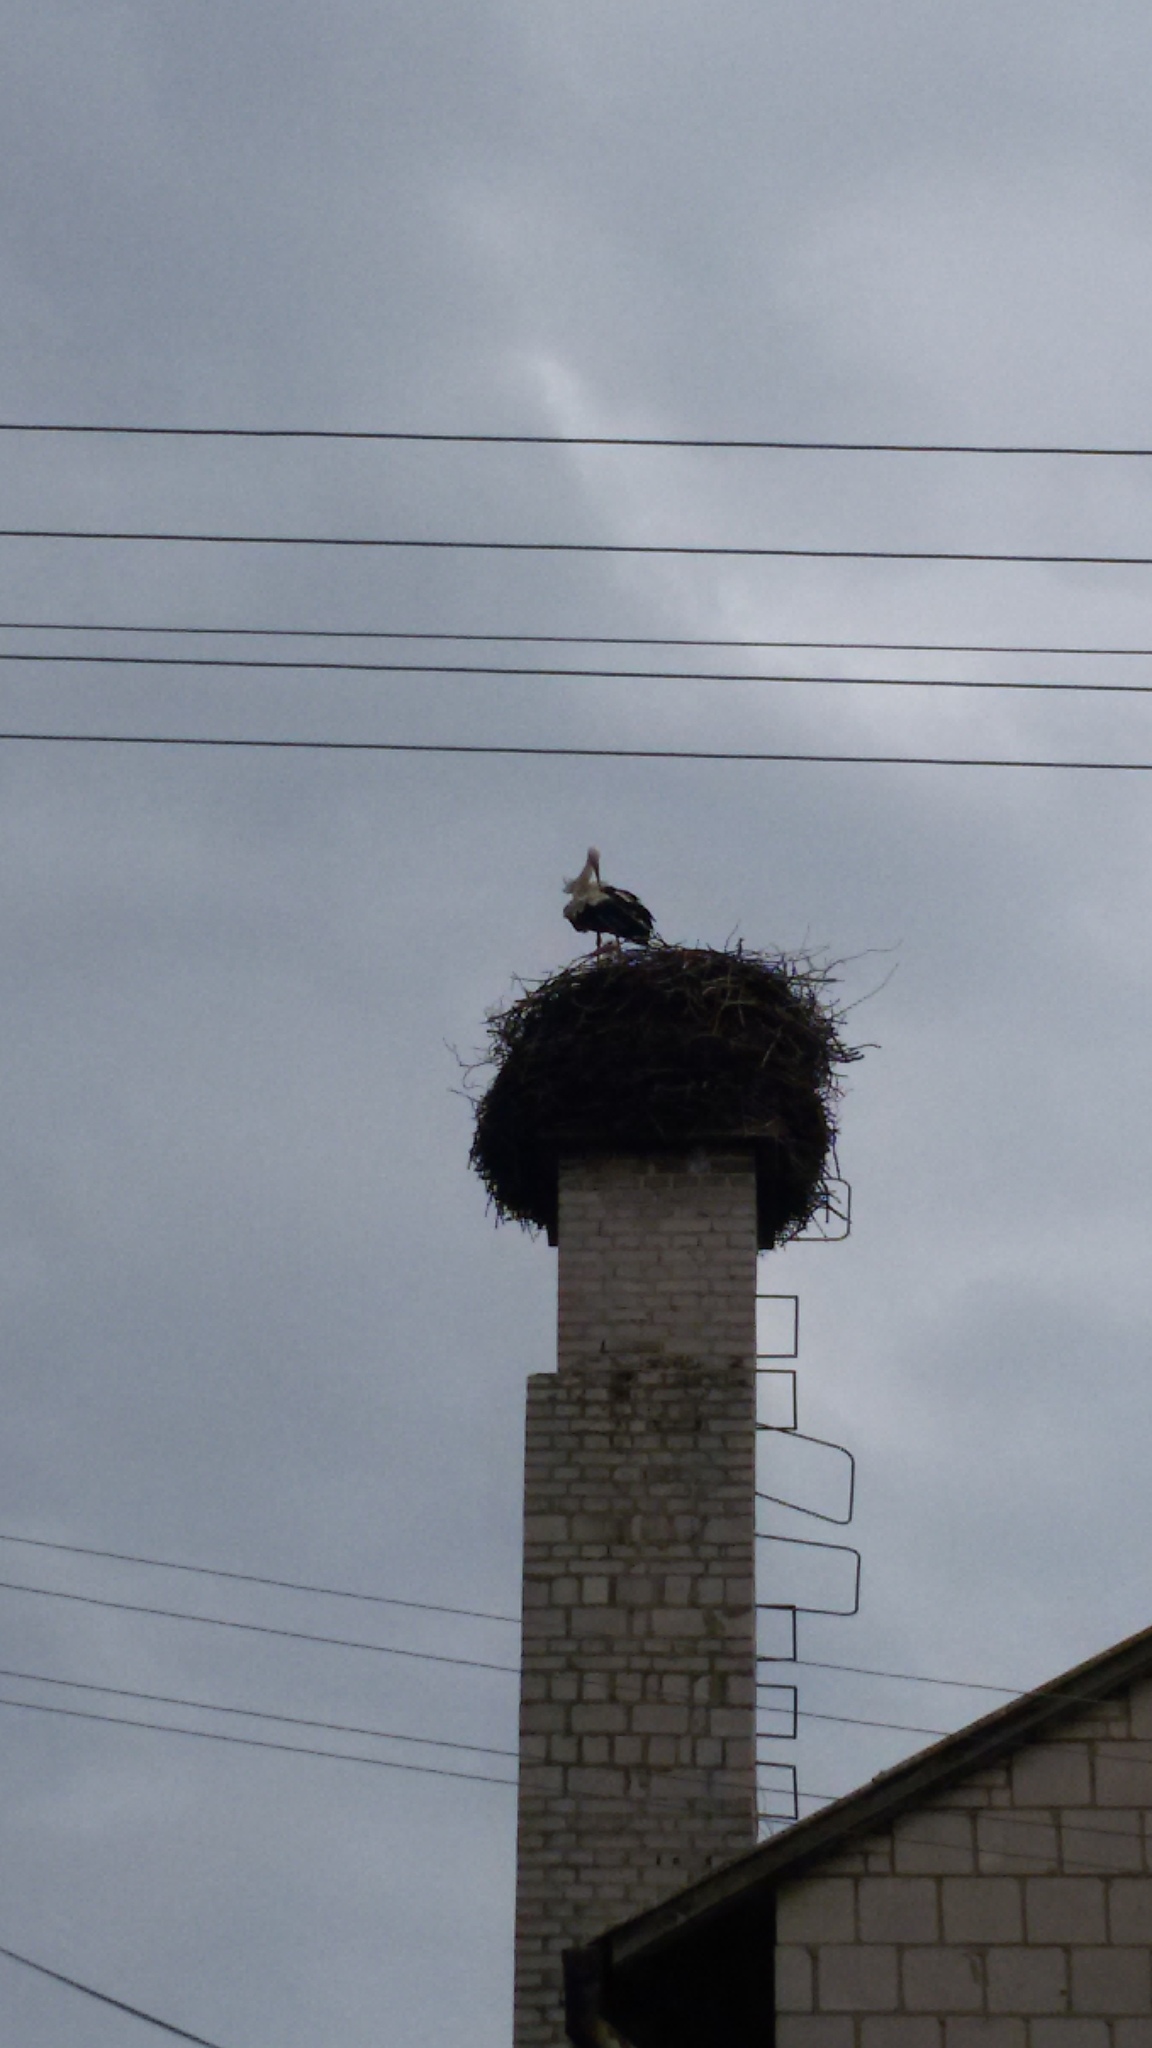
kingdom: Animalia
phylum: Chordata
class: Aves
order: Ciconiiformes
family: Ciconiidae
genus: Ciconia
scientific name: Ciconia ciconia
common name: White stork
